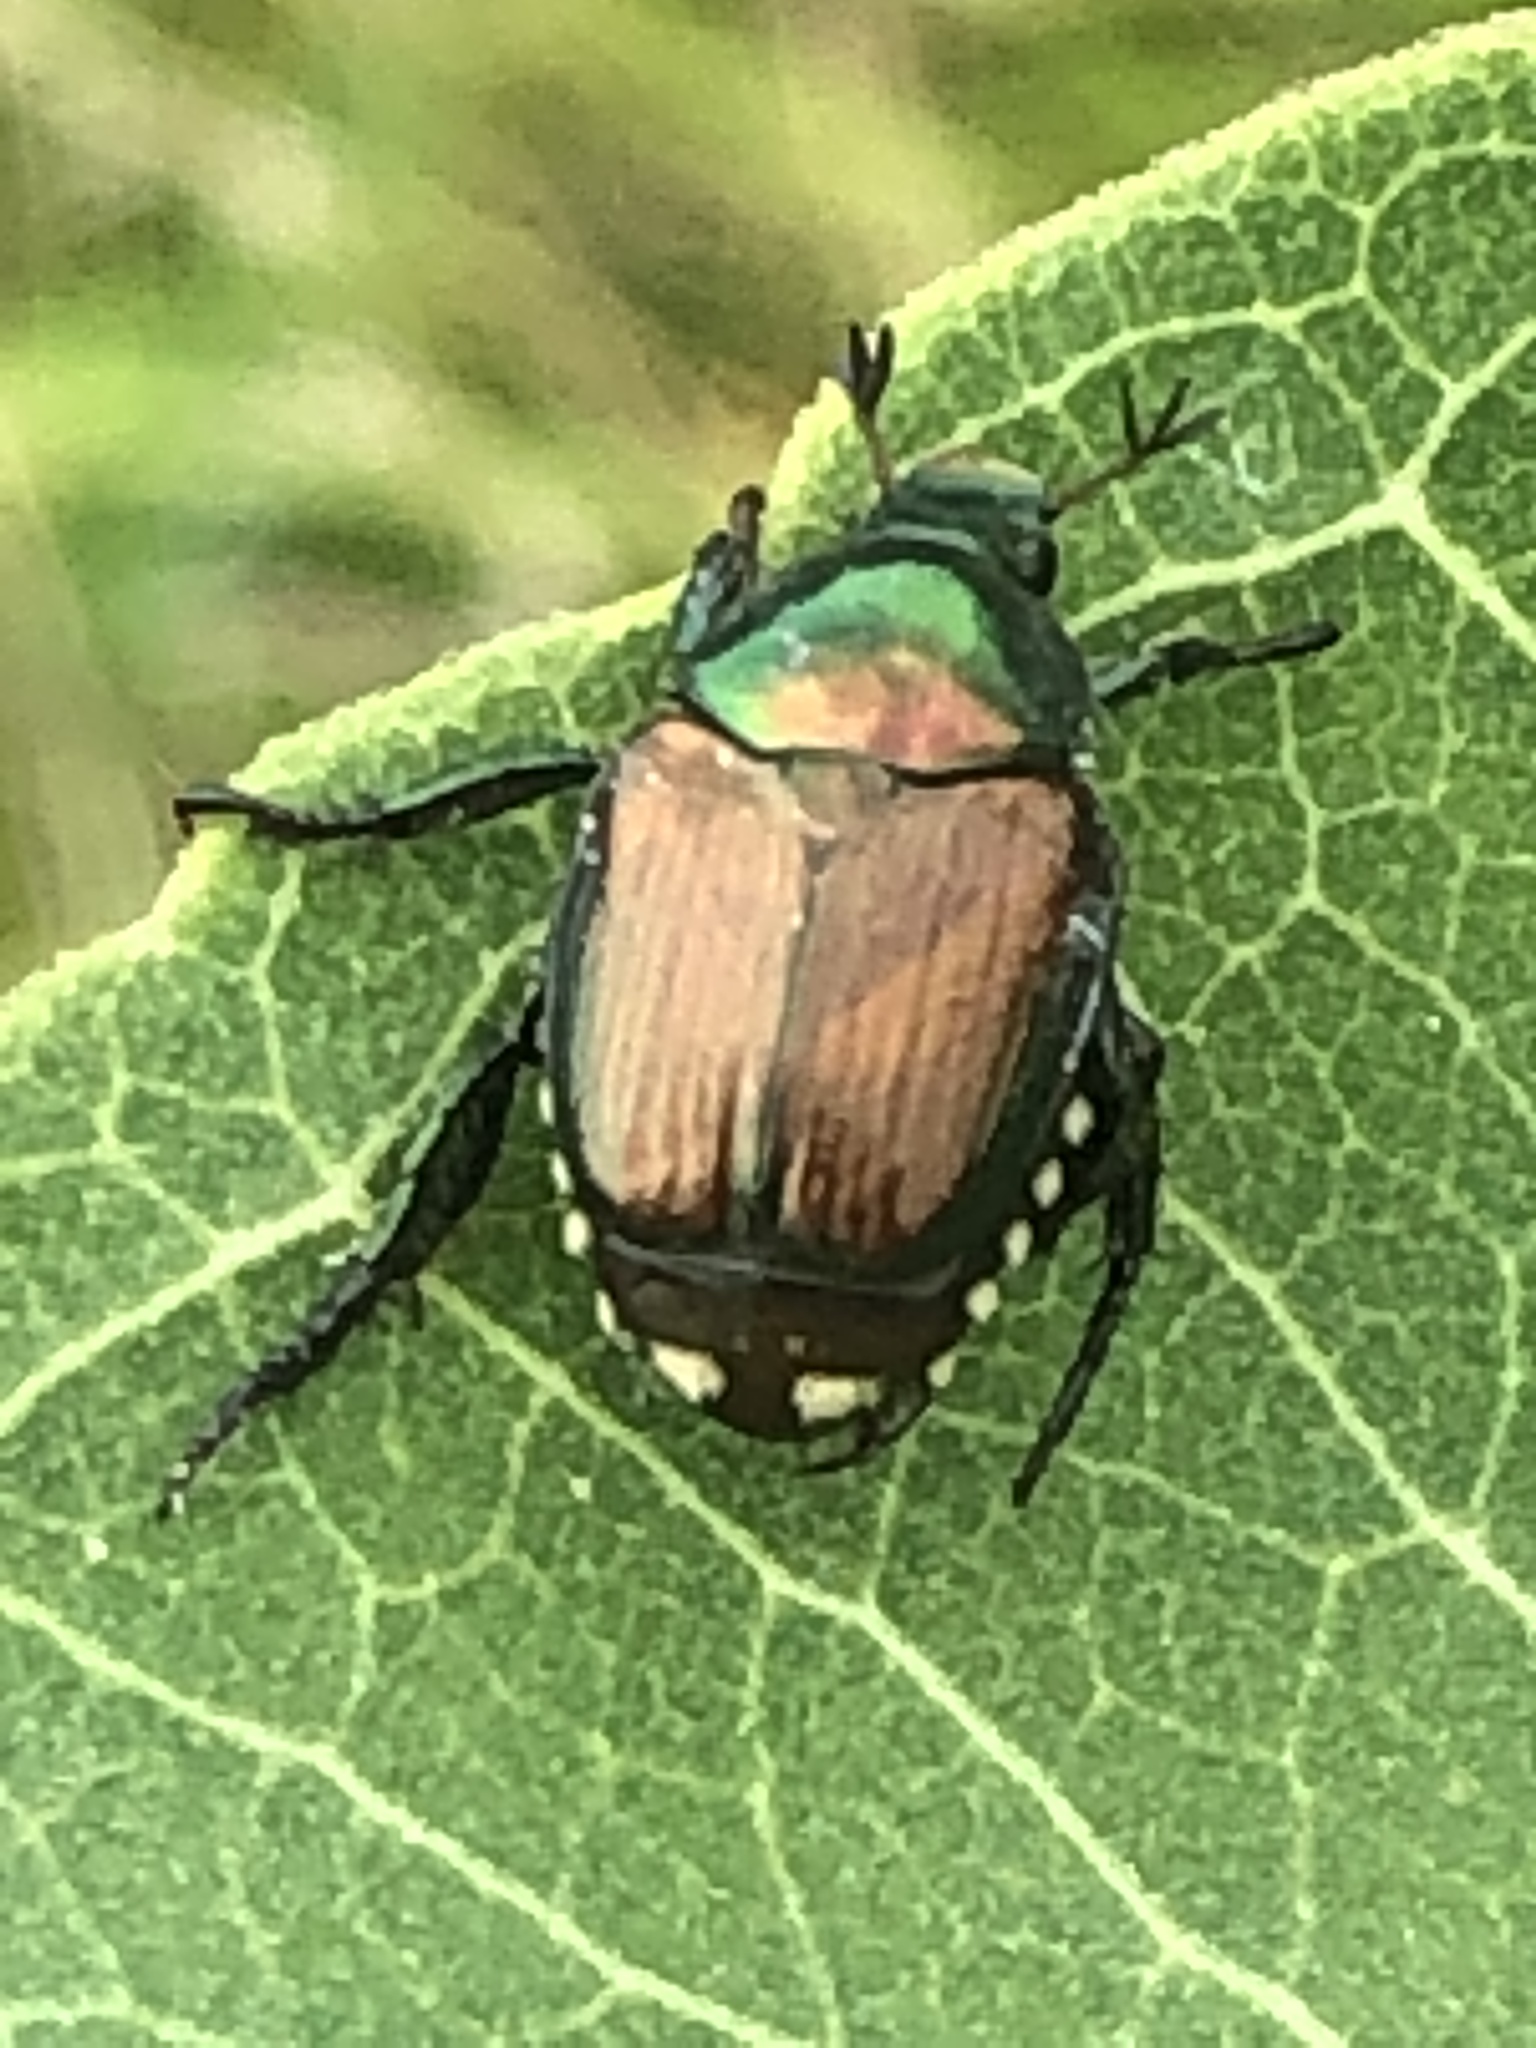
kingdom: Animalia
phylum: Arthropoda
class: Insecta
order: Coleoptera
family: Scarabaeidae
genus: Popillia
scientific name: Popillia japonica
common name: Japanese beetle
